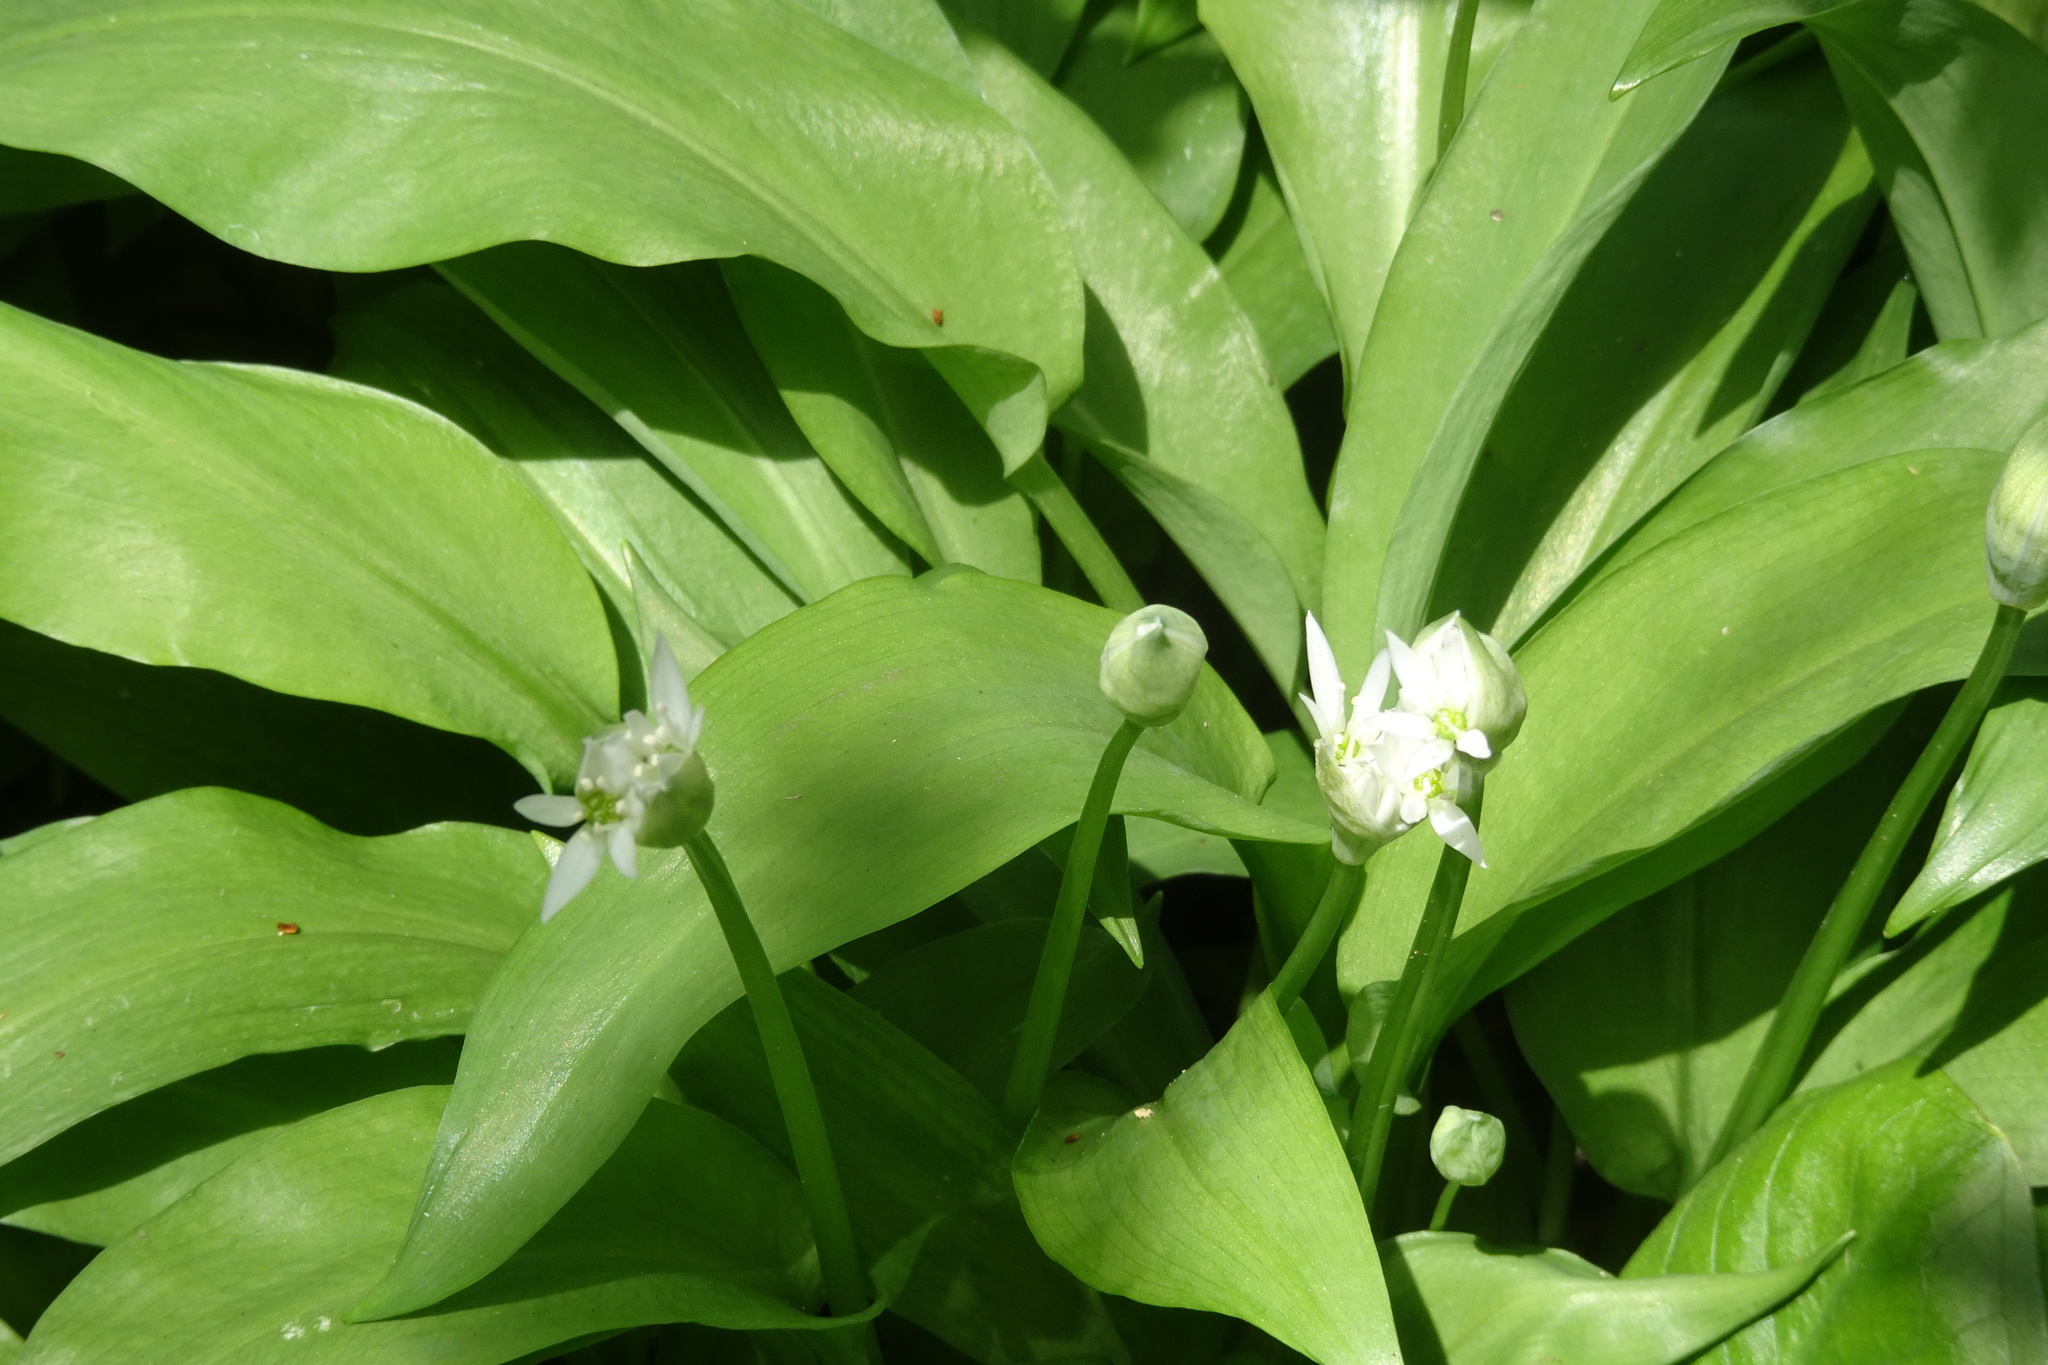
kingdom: Plantae
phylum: Tracheophyta
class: Liliopsida
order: Asparagales
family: Amaryllidaceae
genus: Allium
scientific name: Allium ursinum
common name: Ramsons
